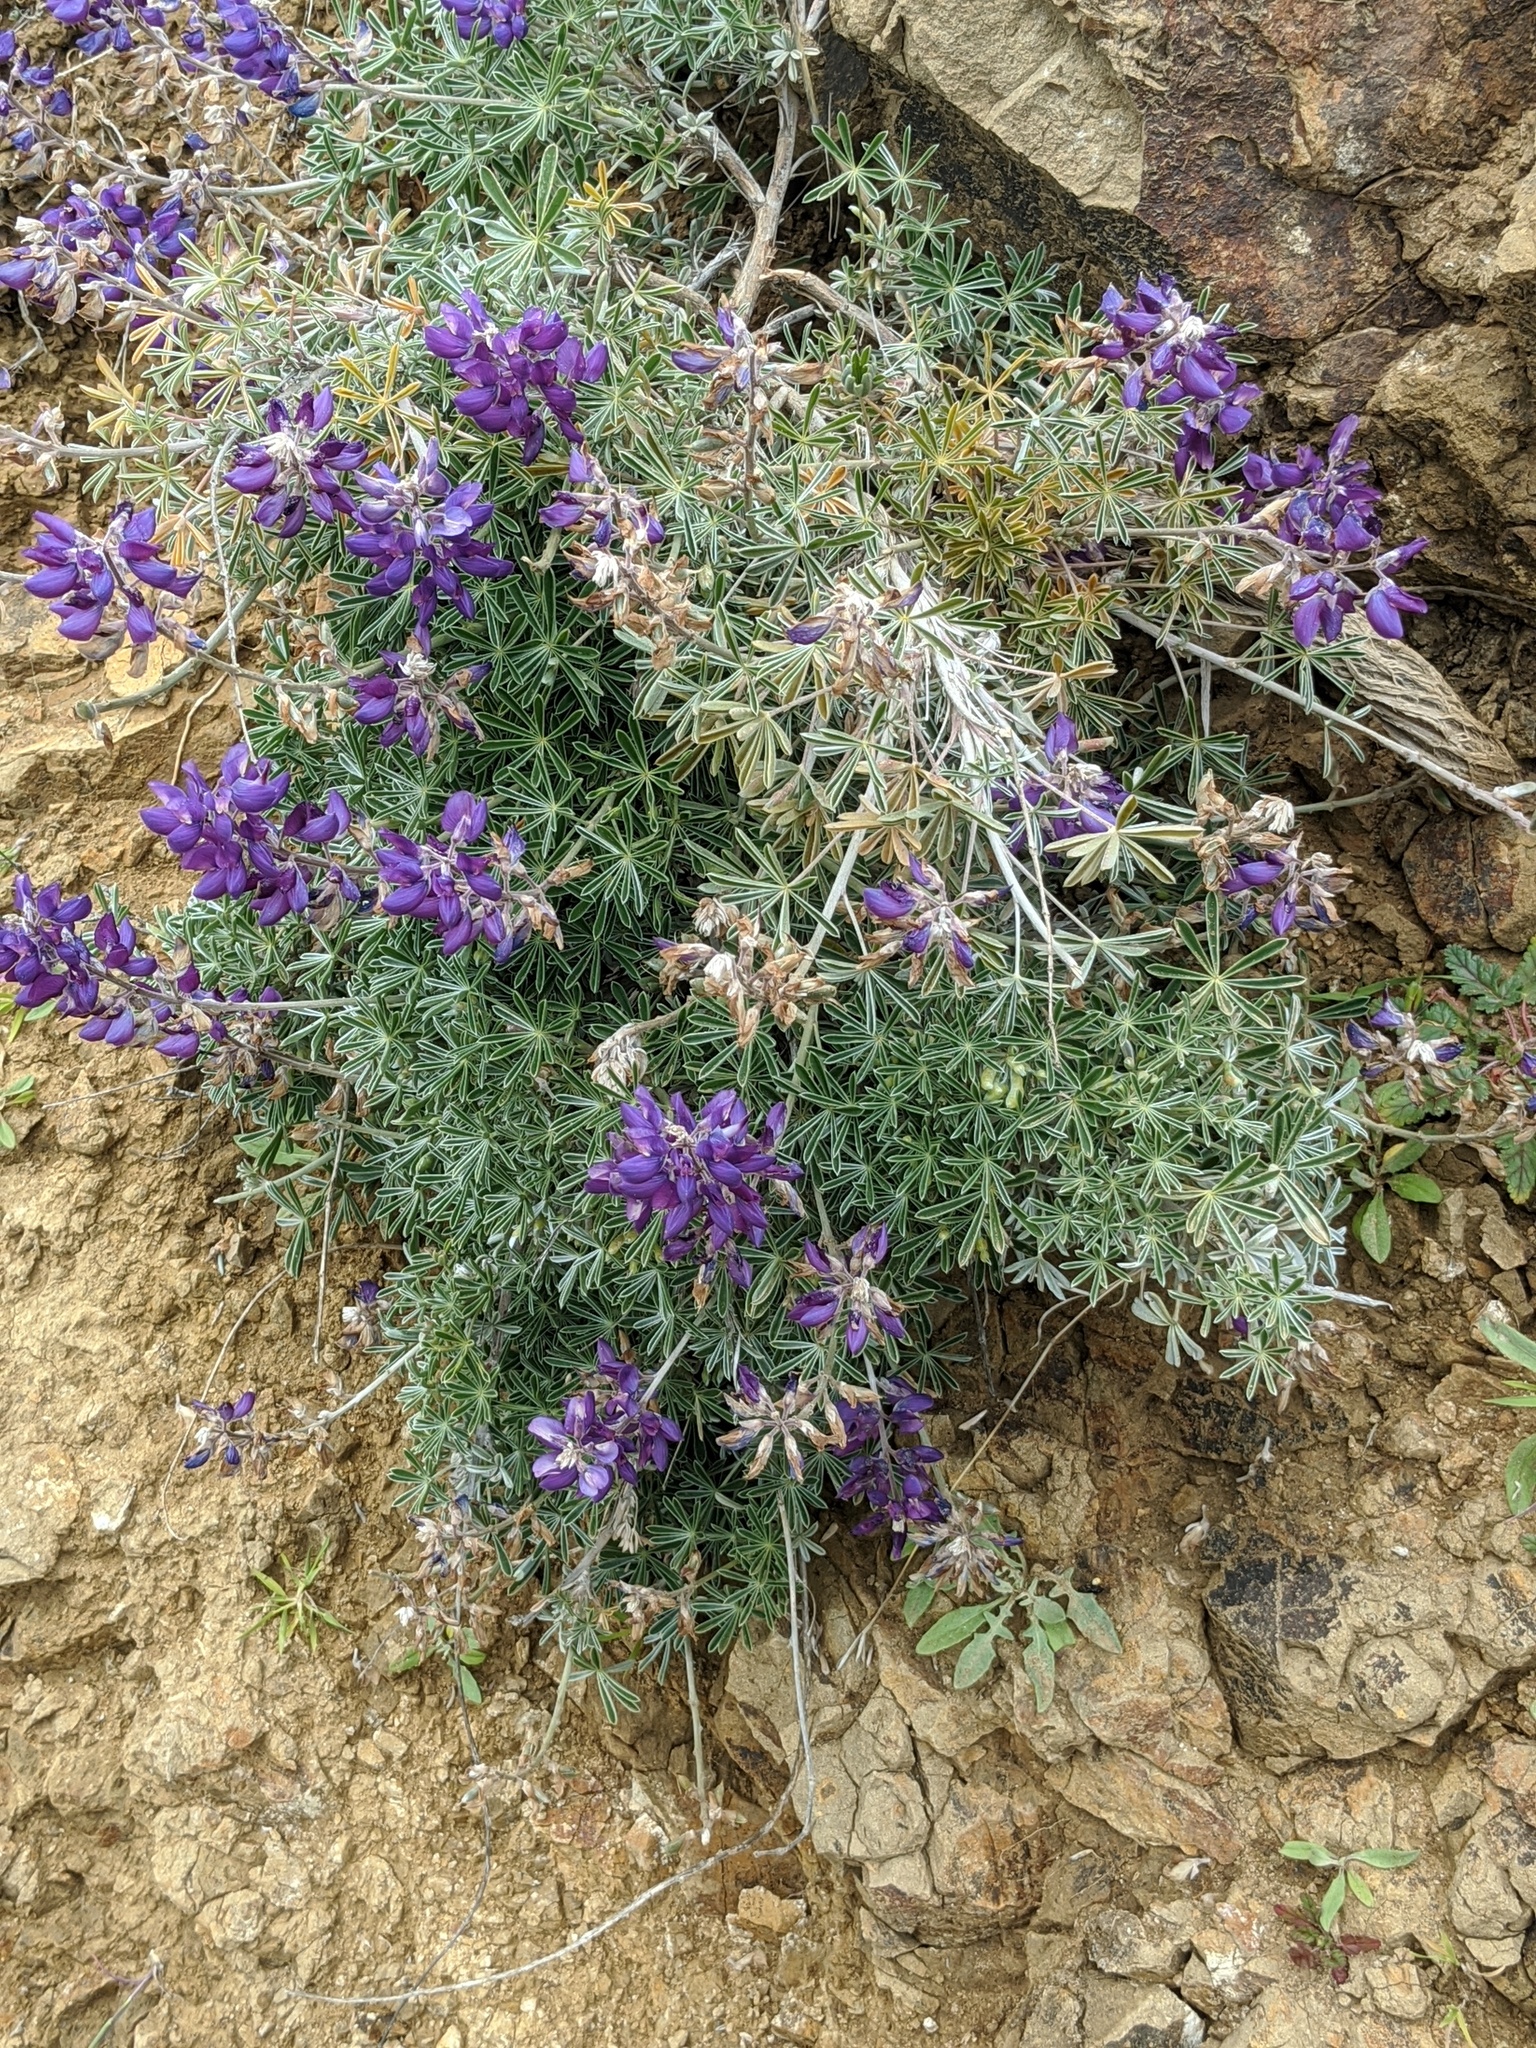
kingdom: Plantae
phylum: Tracheophyta
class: Magnoliopsida
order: Fabales
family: Fabaceae
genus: Lupinus
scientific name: Lupinus albifrons
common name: Foothill lupine
